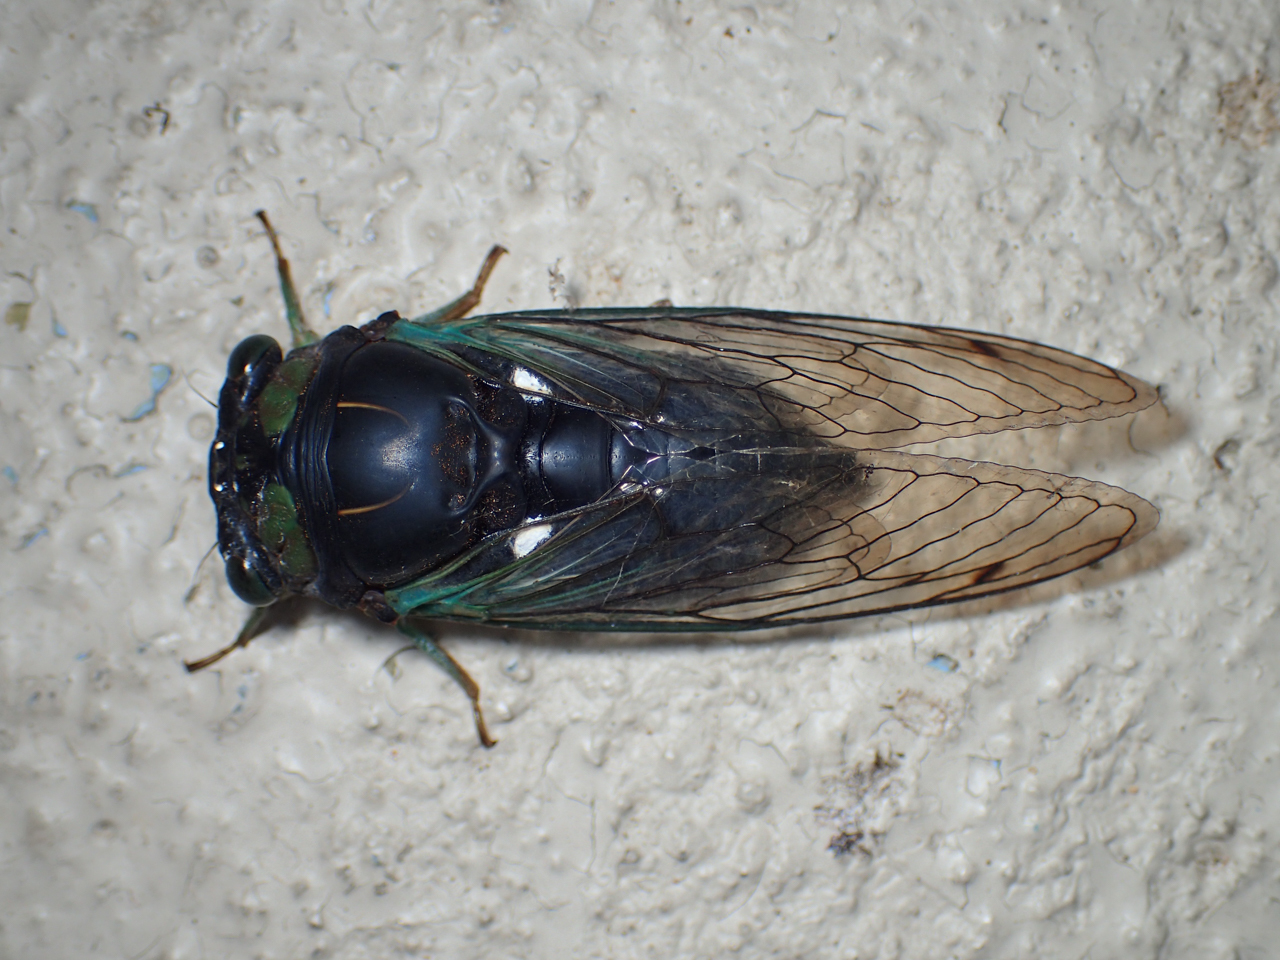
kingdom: Animalia
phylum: Arthropoda
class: Insecta
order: Hemiptera
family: Cicadidae
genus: Neotibicen
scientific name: Neotibicen tibicen
